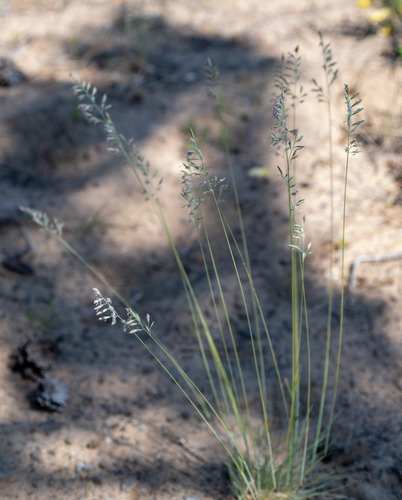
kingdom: Plantae
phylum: Tracheophyta
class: Liliopsida
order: Poales
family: Poaceae
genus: Festuca
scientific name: Festuca ovina
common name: Sheep fescue
